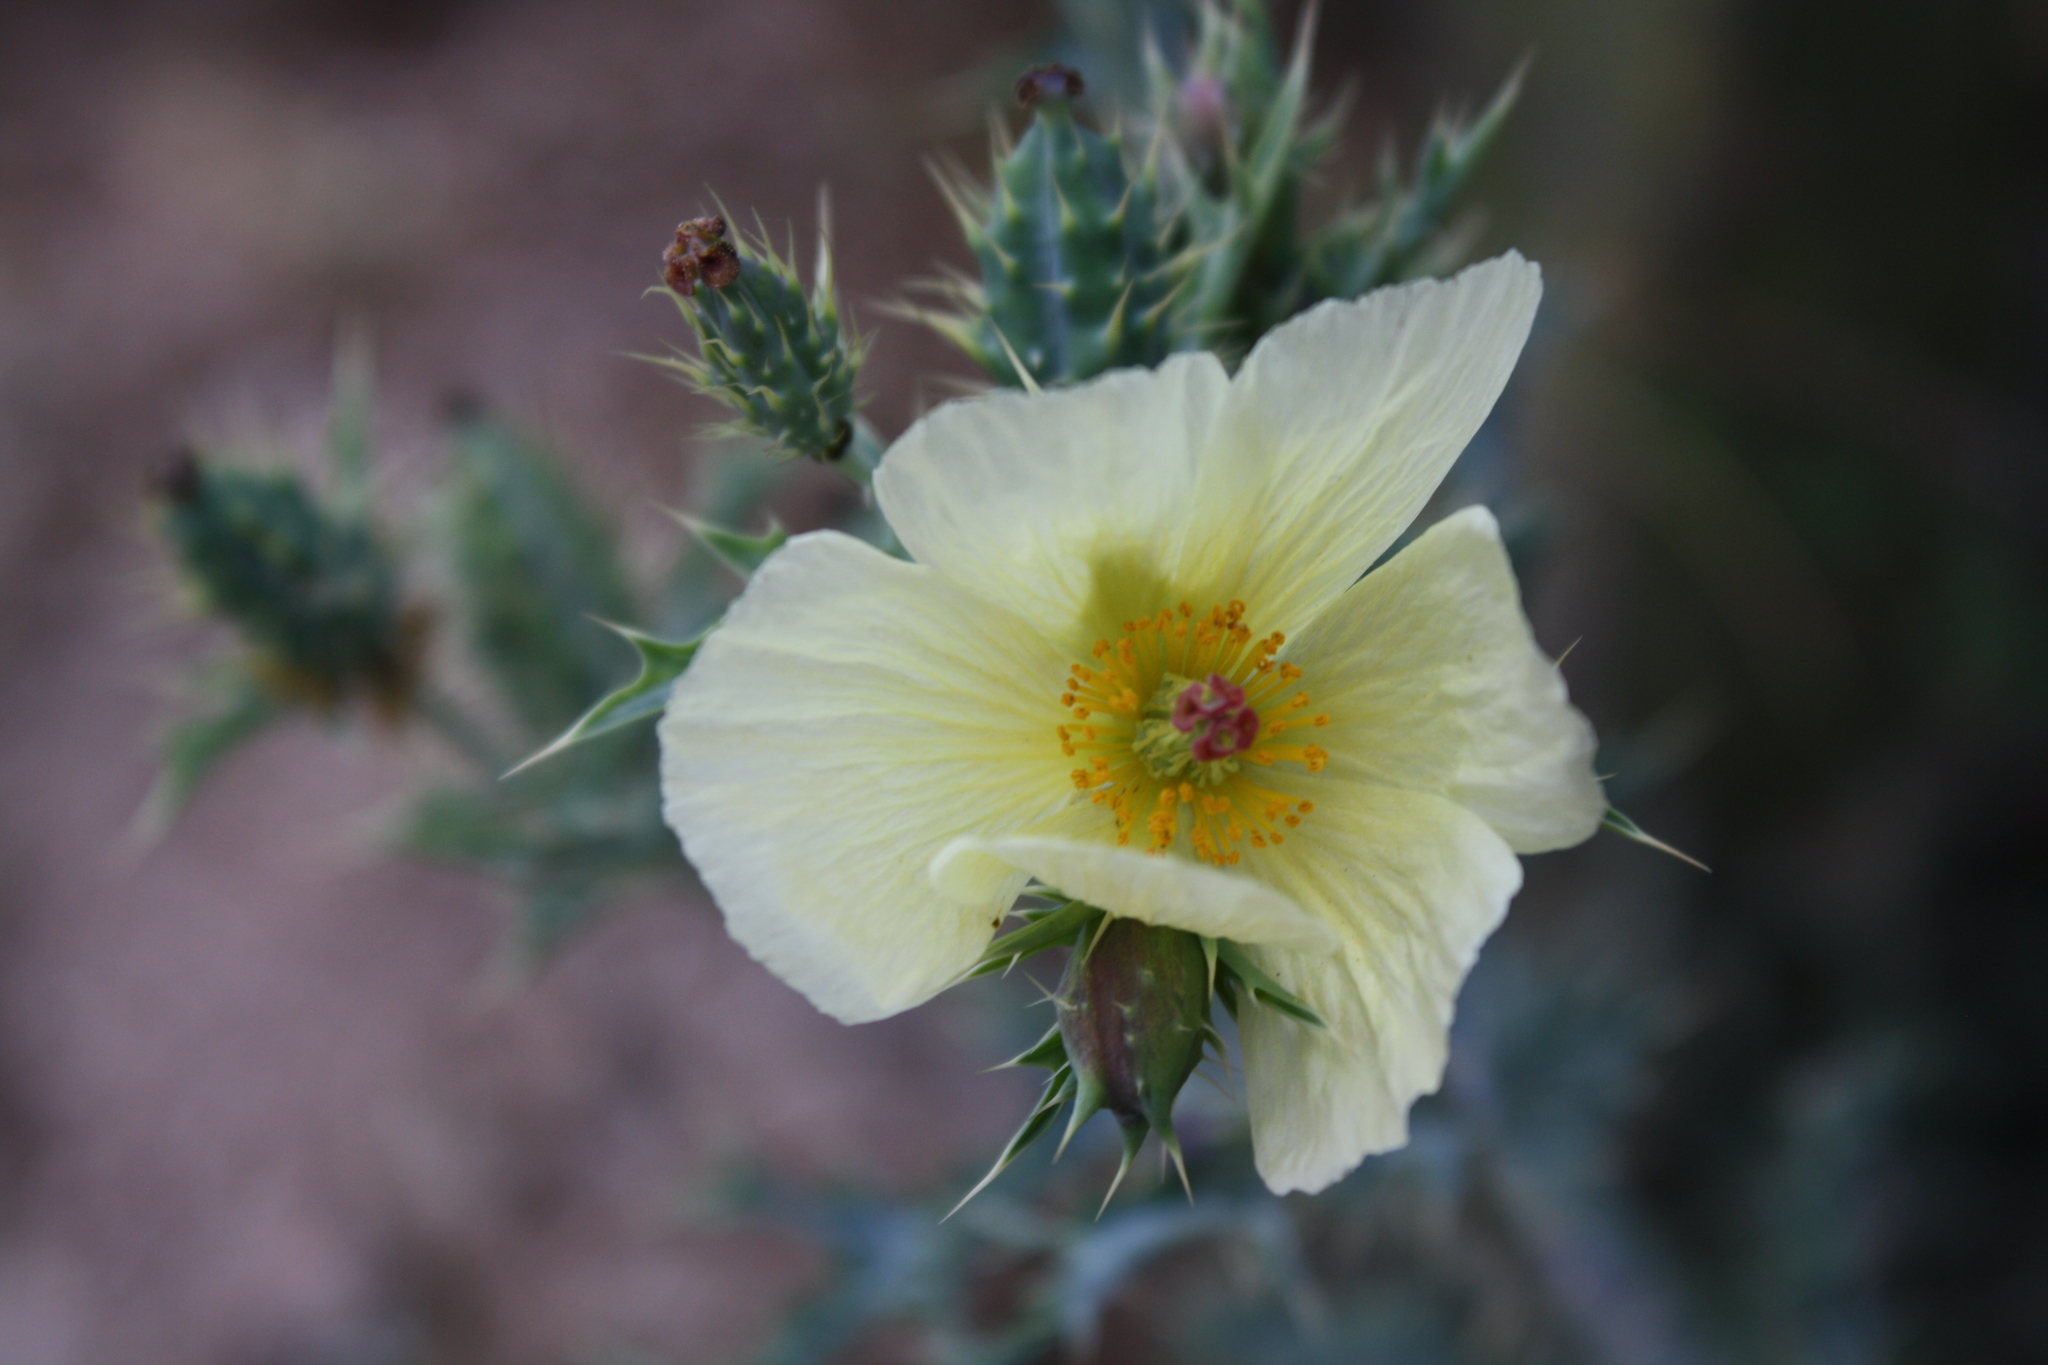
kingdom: Plantae
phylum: Tracheophyta
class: Magnoliopsida
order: Ranunculales
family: Papaveraceae
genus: Argemone
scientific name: Argemone ochroleuca
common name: White-flower mexican-poppy
